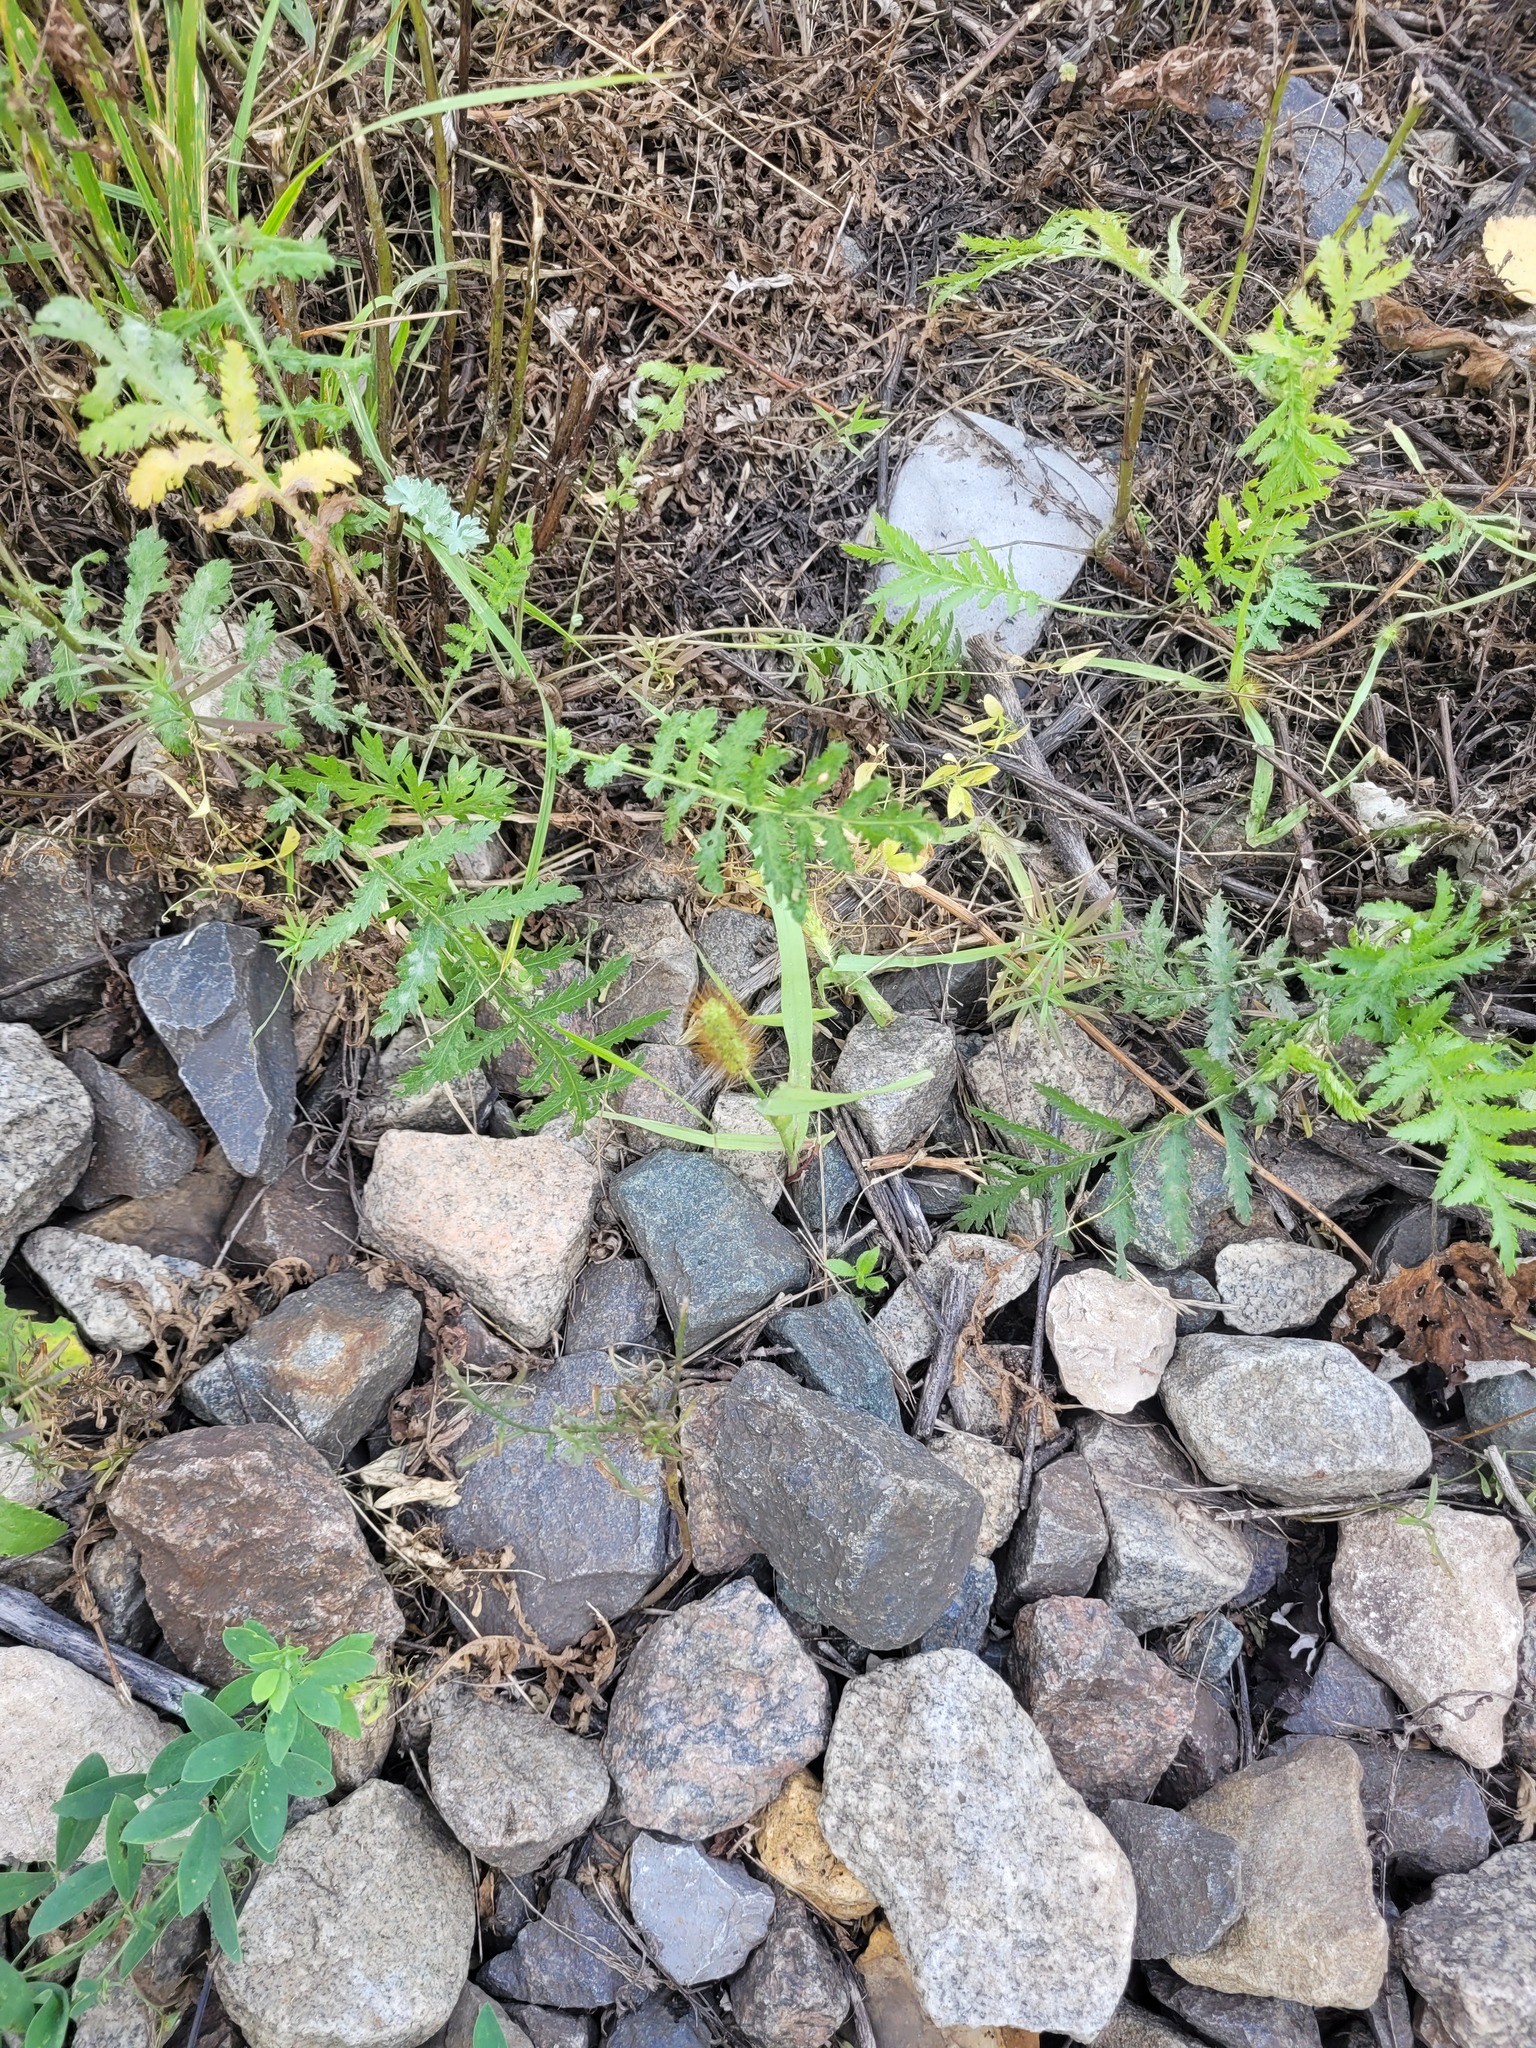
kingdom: Plantae
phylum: Tracheophyta
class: Liliopsida
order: Poales
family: Poaceae
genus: Setaria
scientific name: Setaria pumila
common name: Yellow bristle-grass
